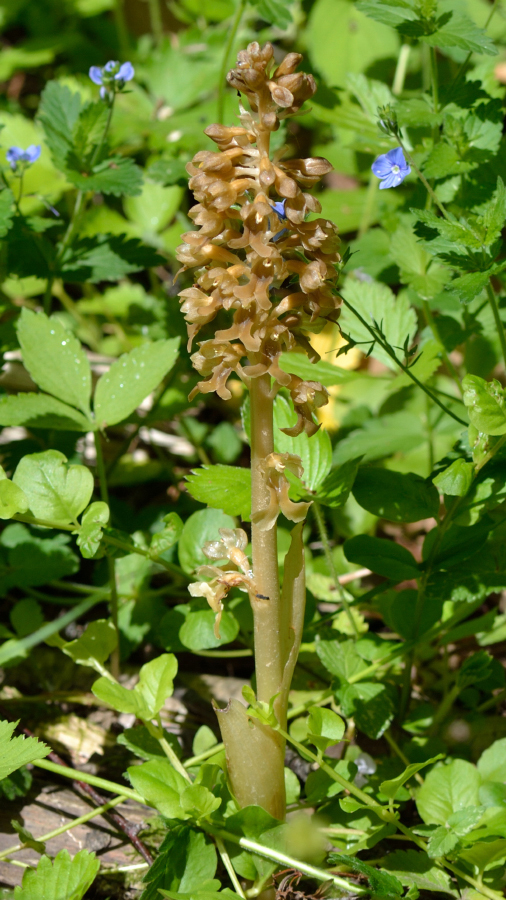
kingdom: Plantae
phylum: Tracheophyta
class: Liliopsida
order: Asparagales
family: Orchidaceae
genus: Neottia
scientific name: Neottia nidus-avis
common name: Bird's-nest orchid
